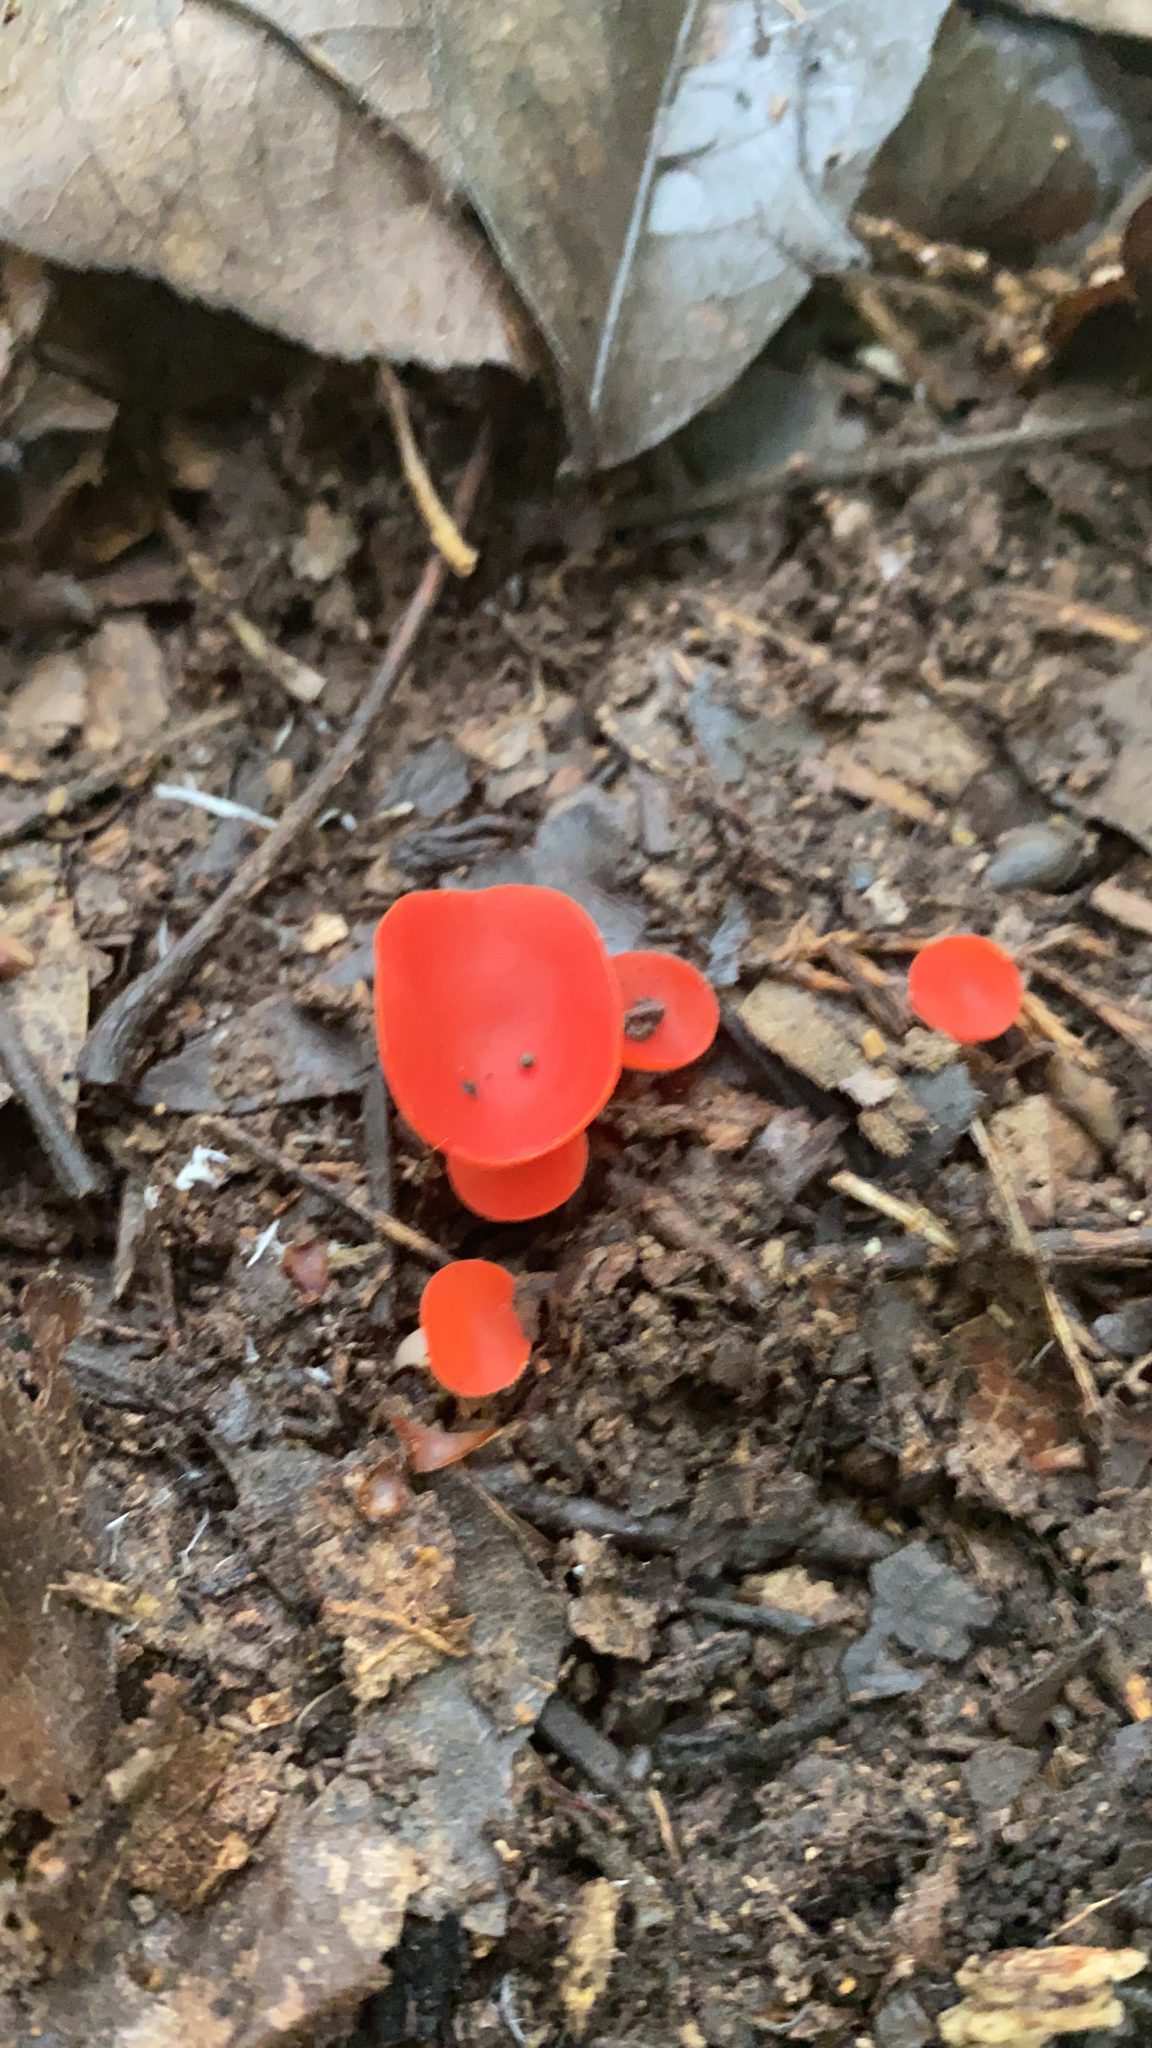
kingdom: Fungi
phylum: Ascomycota
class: Pezizomycetes
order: Pezizales
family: Sarcoscyphaceae
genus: Sarcoscypha
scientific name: Sarcoscypha occidentalis
